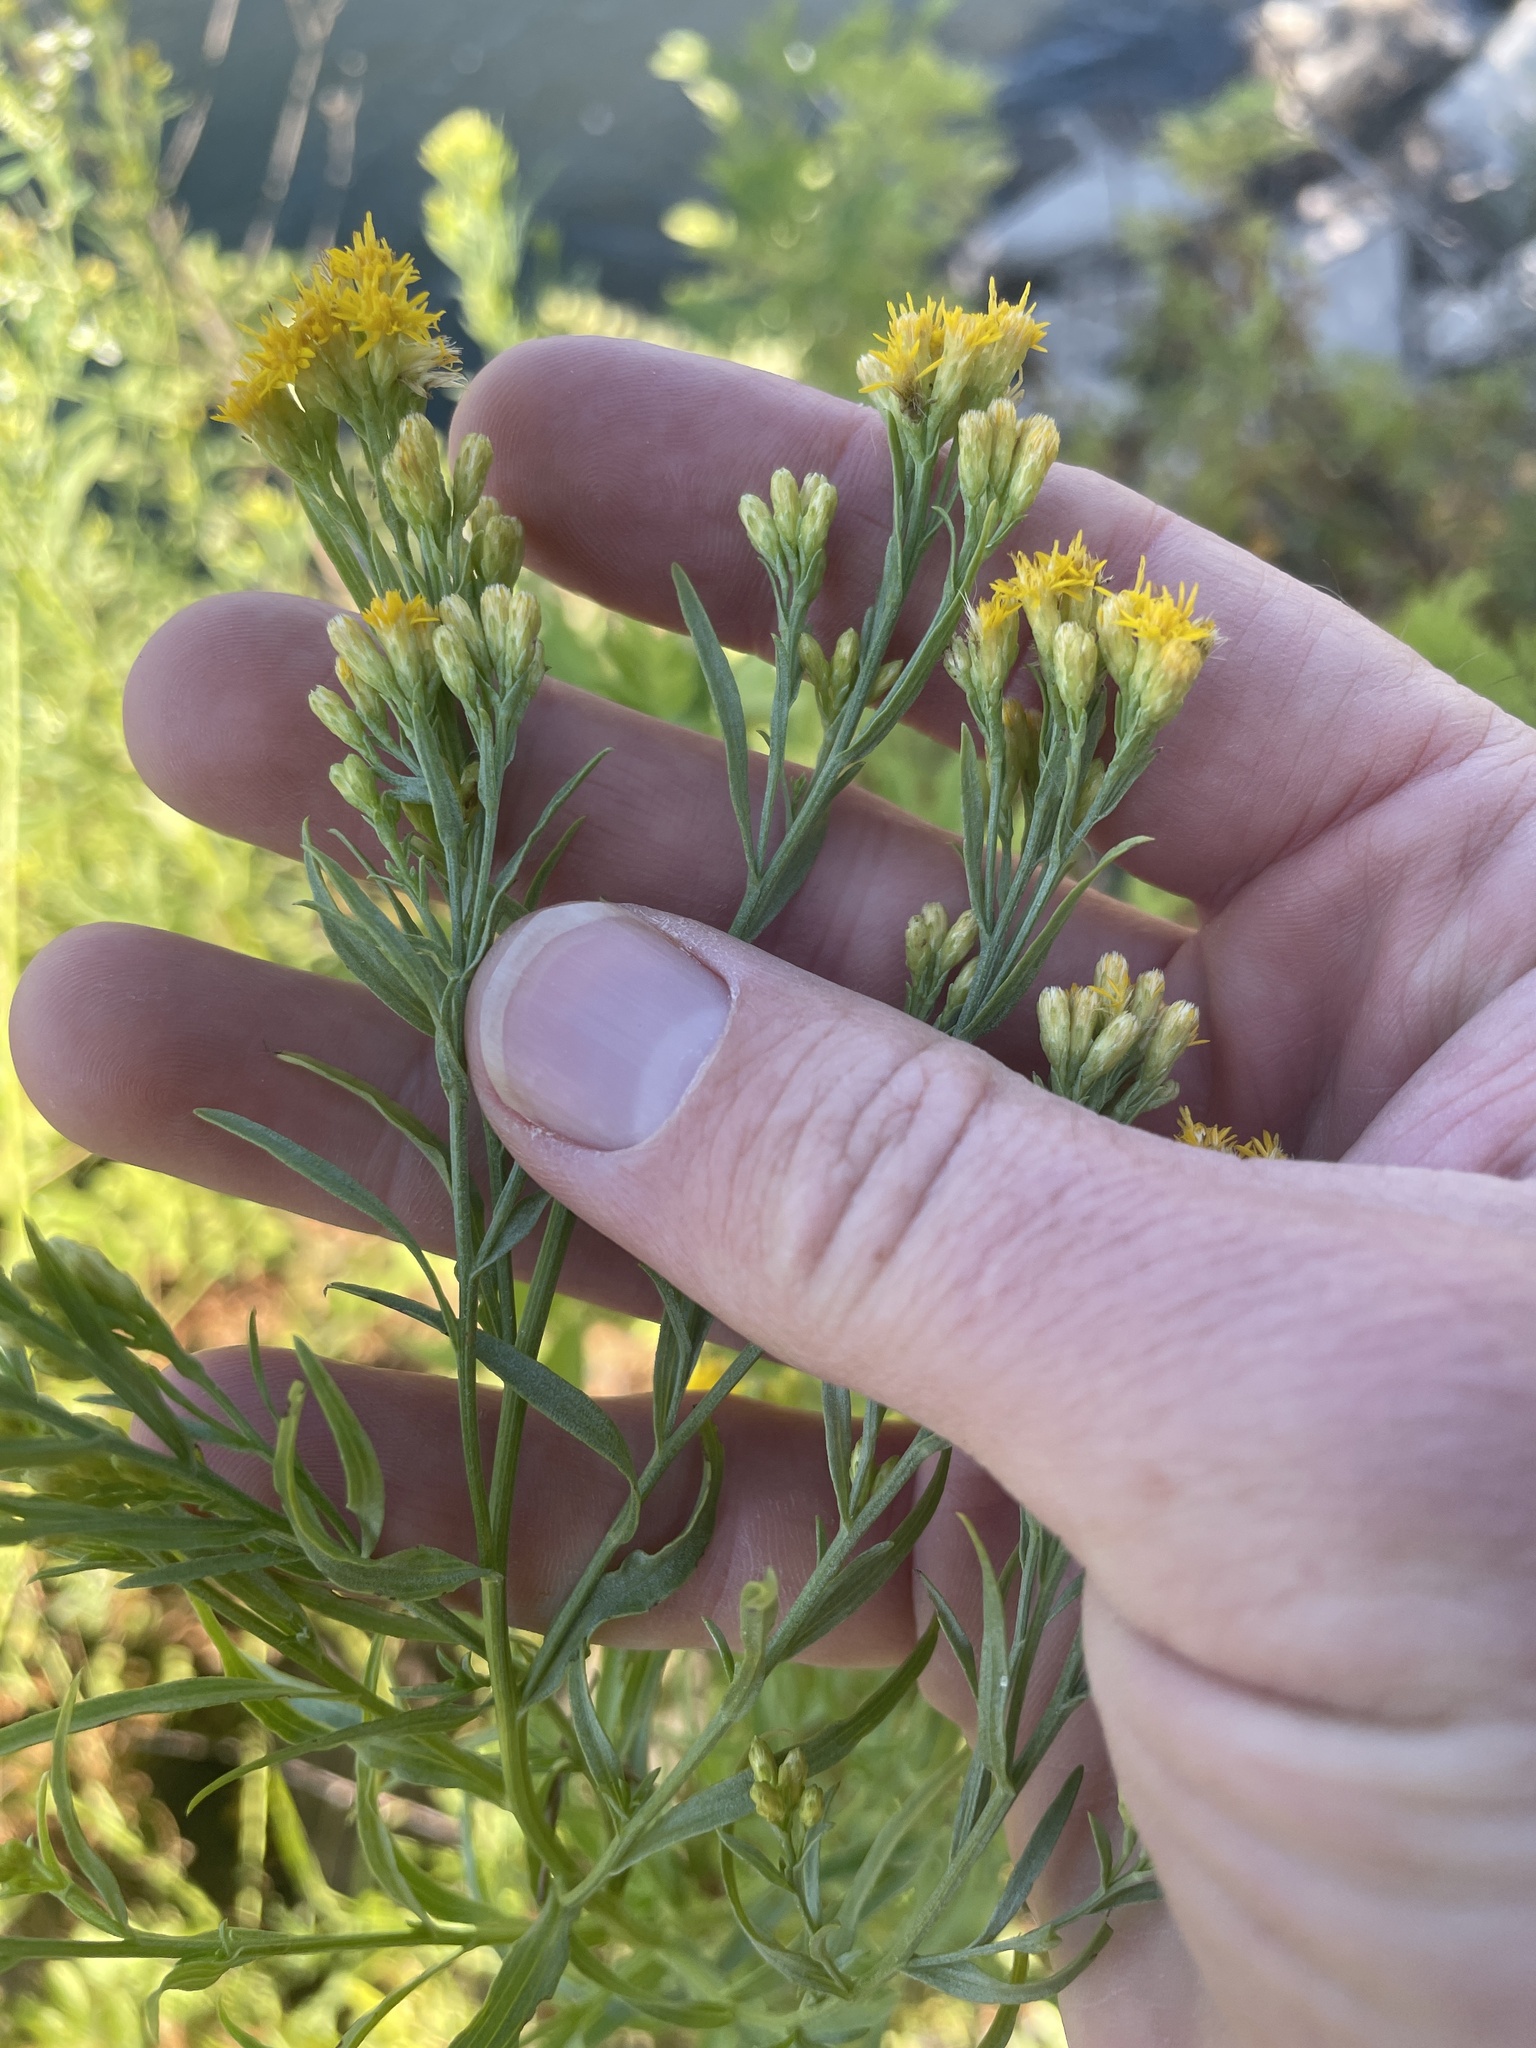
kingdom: Plantae
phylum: Tracheophyta
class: Magnoliopsida
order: Asterales
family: Asteraceae
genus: Euthamia
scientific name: Euthamia occidentalis
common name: Western goldentop
